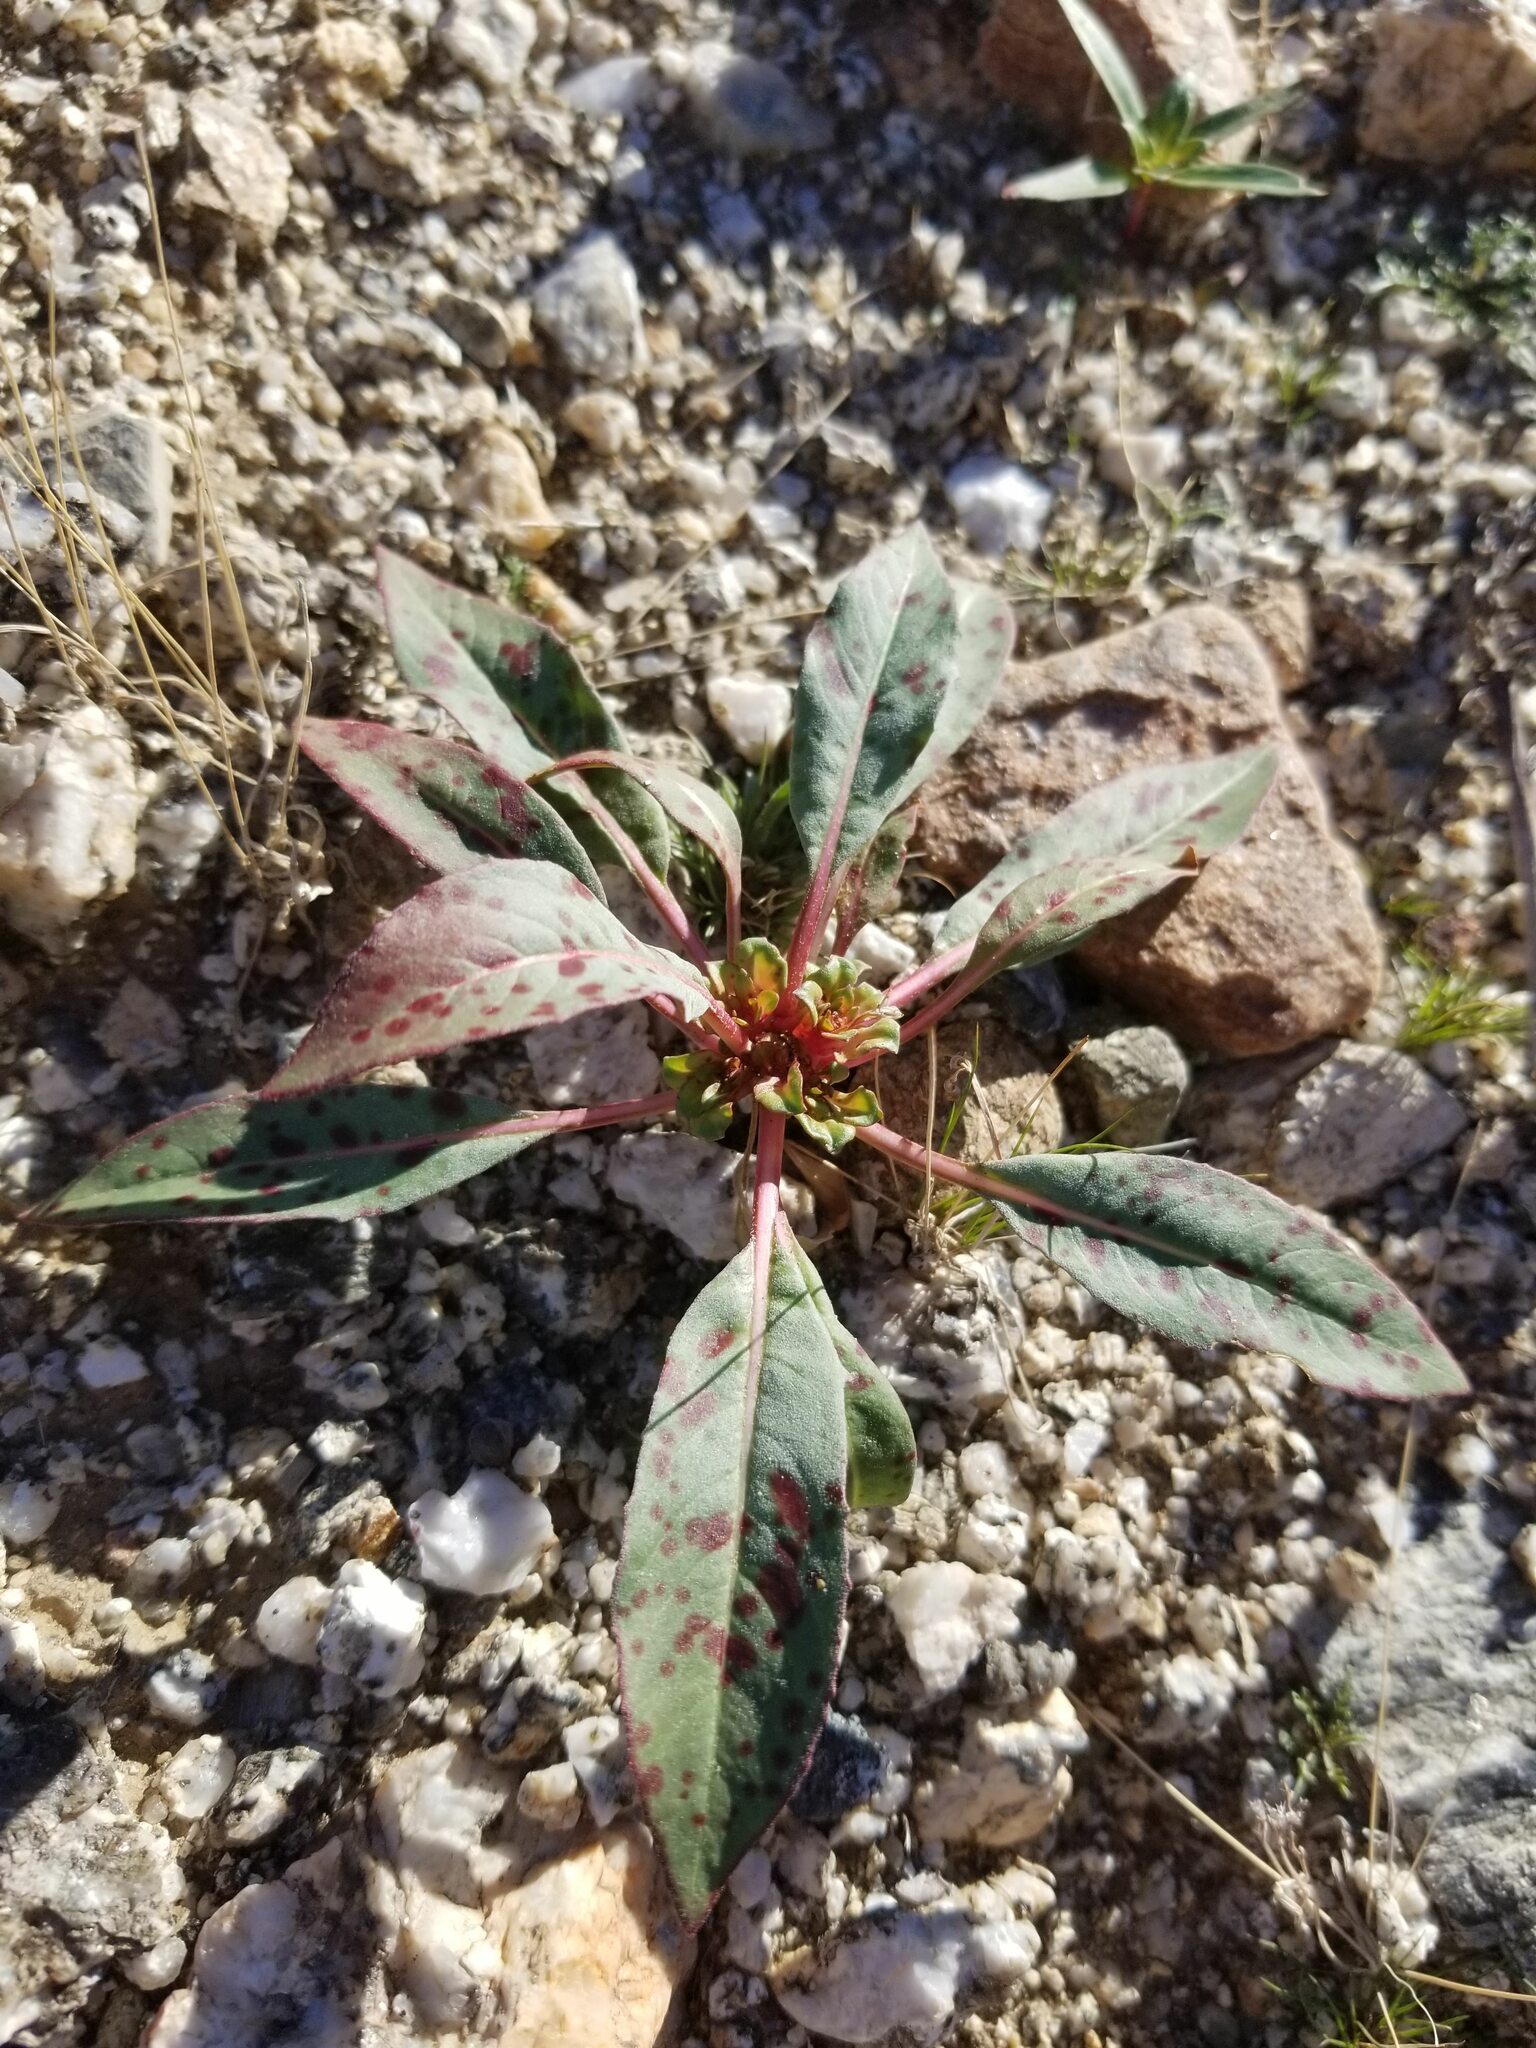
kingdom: Plantae
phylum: Tracheophyta
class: Magnoliopsida
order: Myrtales
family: Onagraceae
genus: Eremothera
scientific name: Eremothera boothii
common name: Booth's evening primrose
